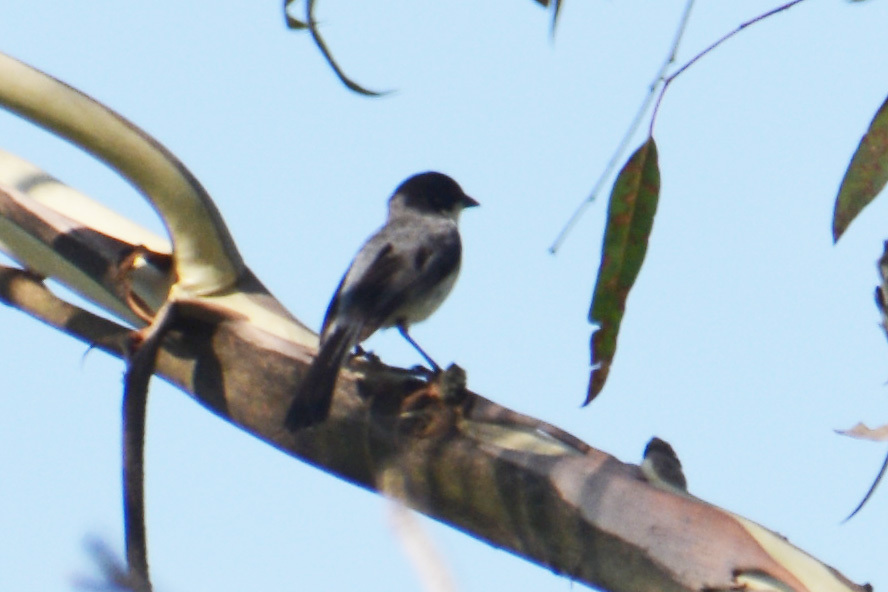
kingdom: Animalia
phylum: Chordata
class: Aves
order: Passeriformes
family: Thraupidae
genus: Microspingus
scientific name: Microspingus melanoleucus
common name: Black-capped warbling-finch
